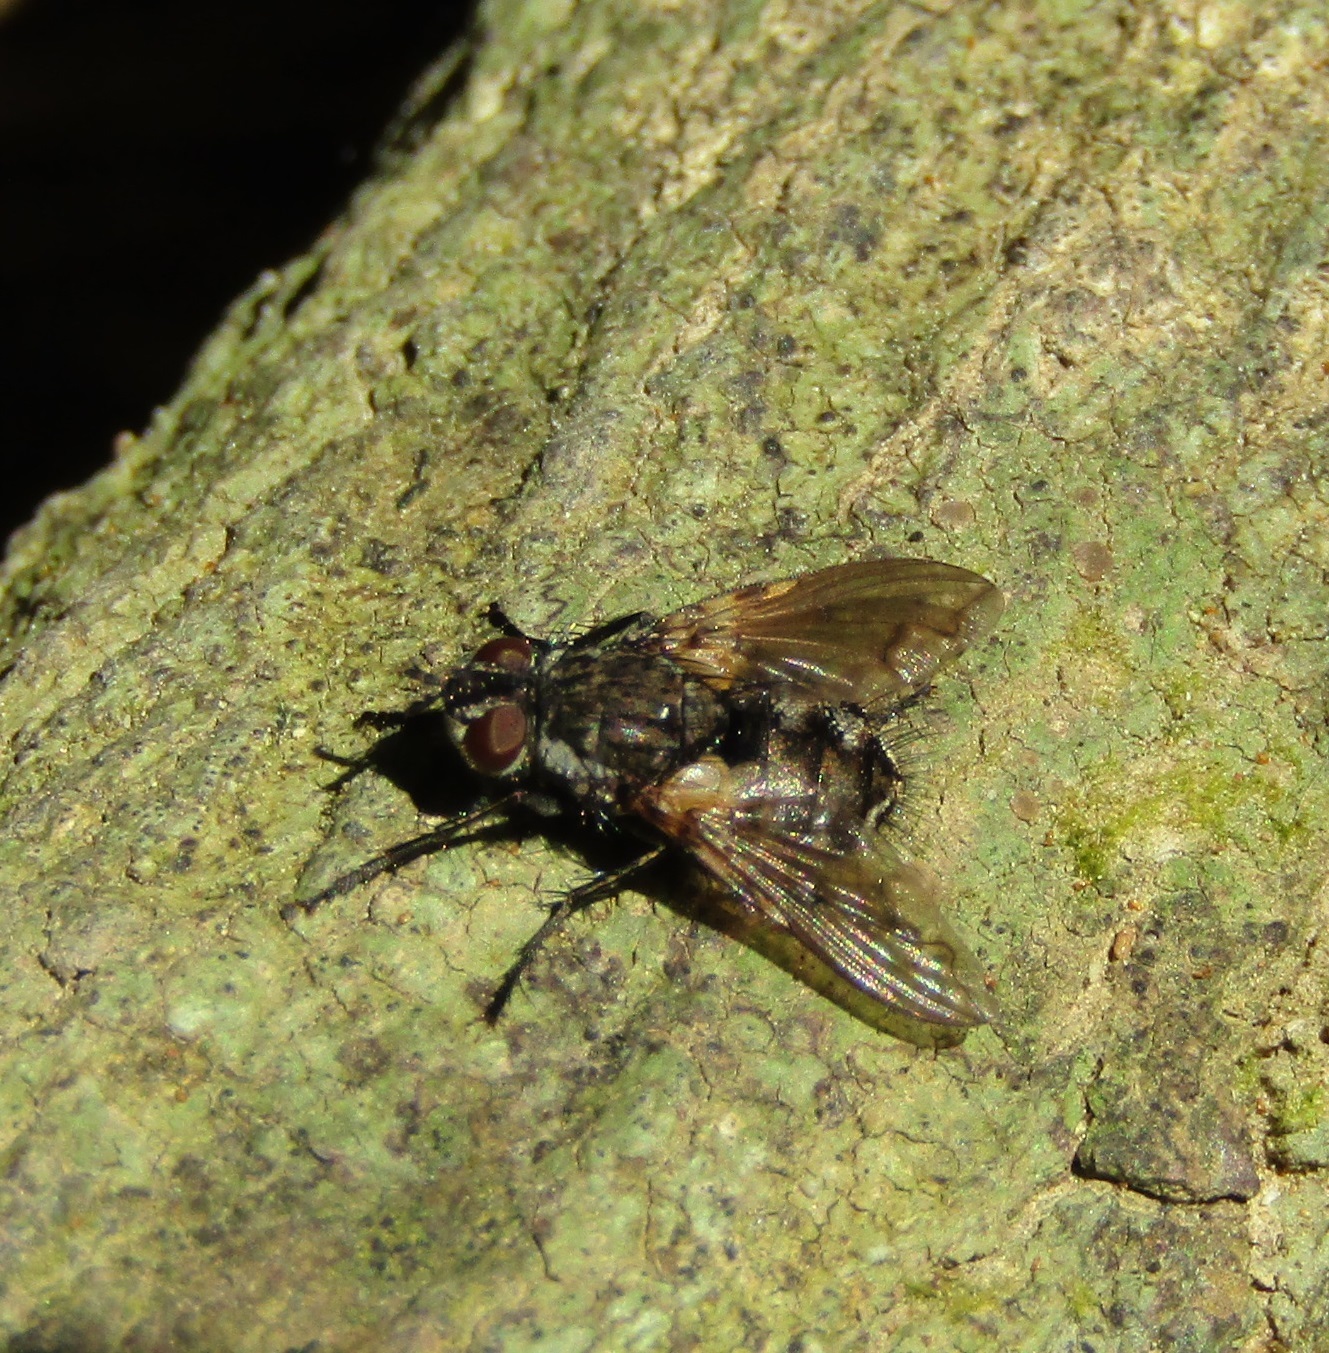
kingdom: Animalia
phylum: Arthropoda
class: Insecta
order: Diptera
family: Tachinidae
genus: Mallochomacquartia
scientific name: Mallochomacquartia vexata
